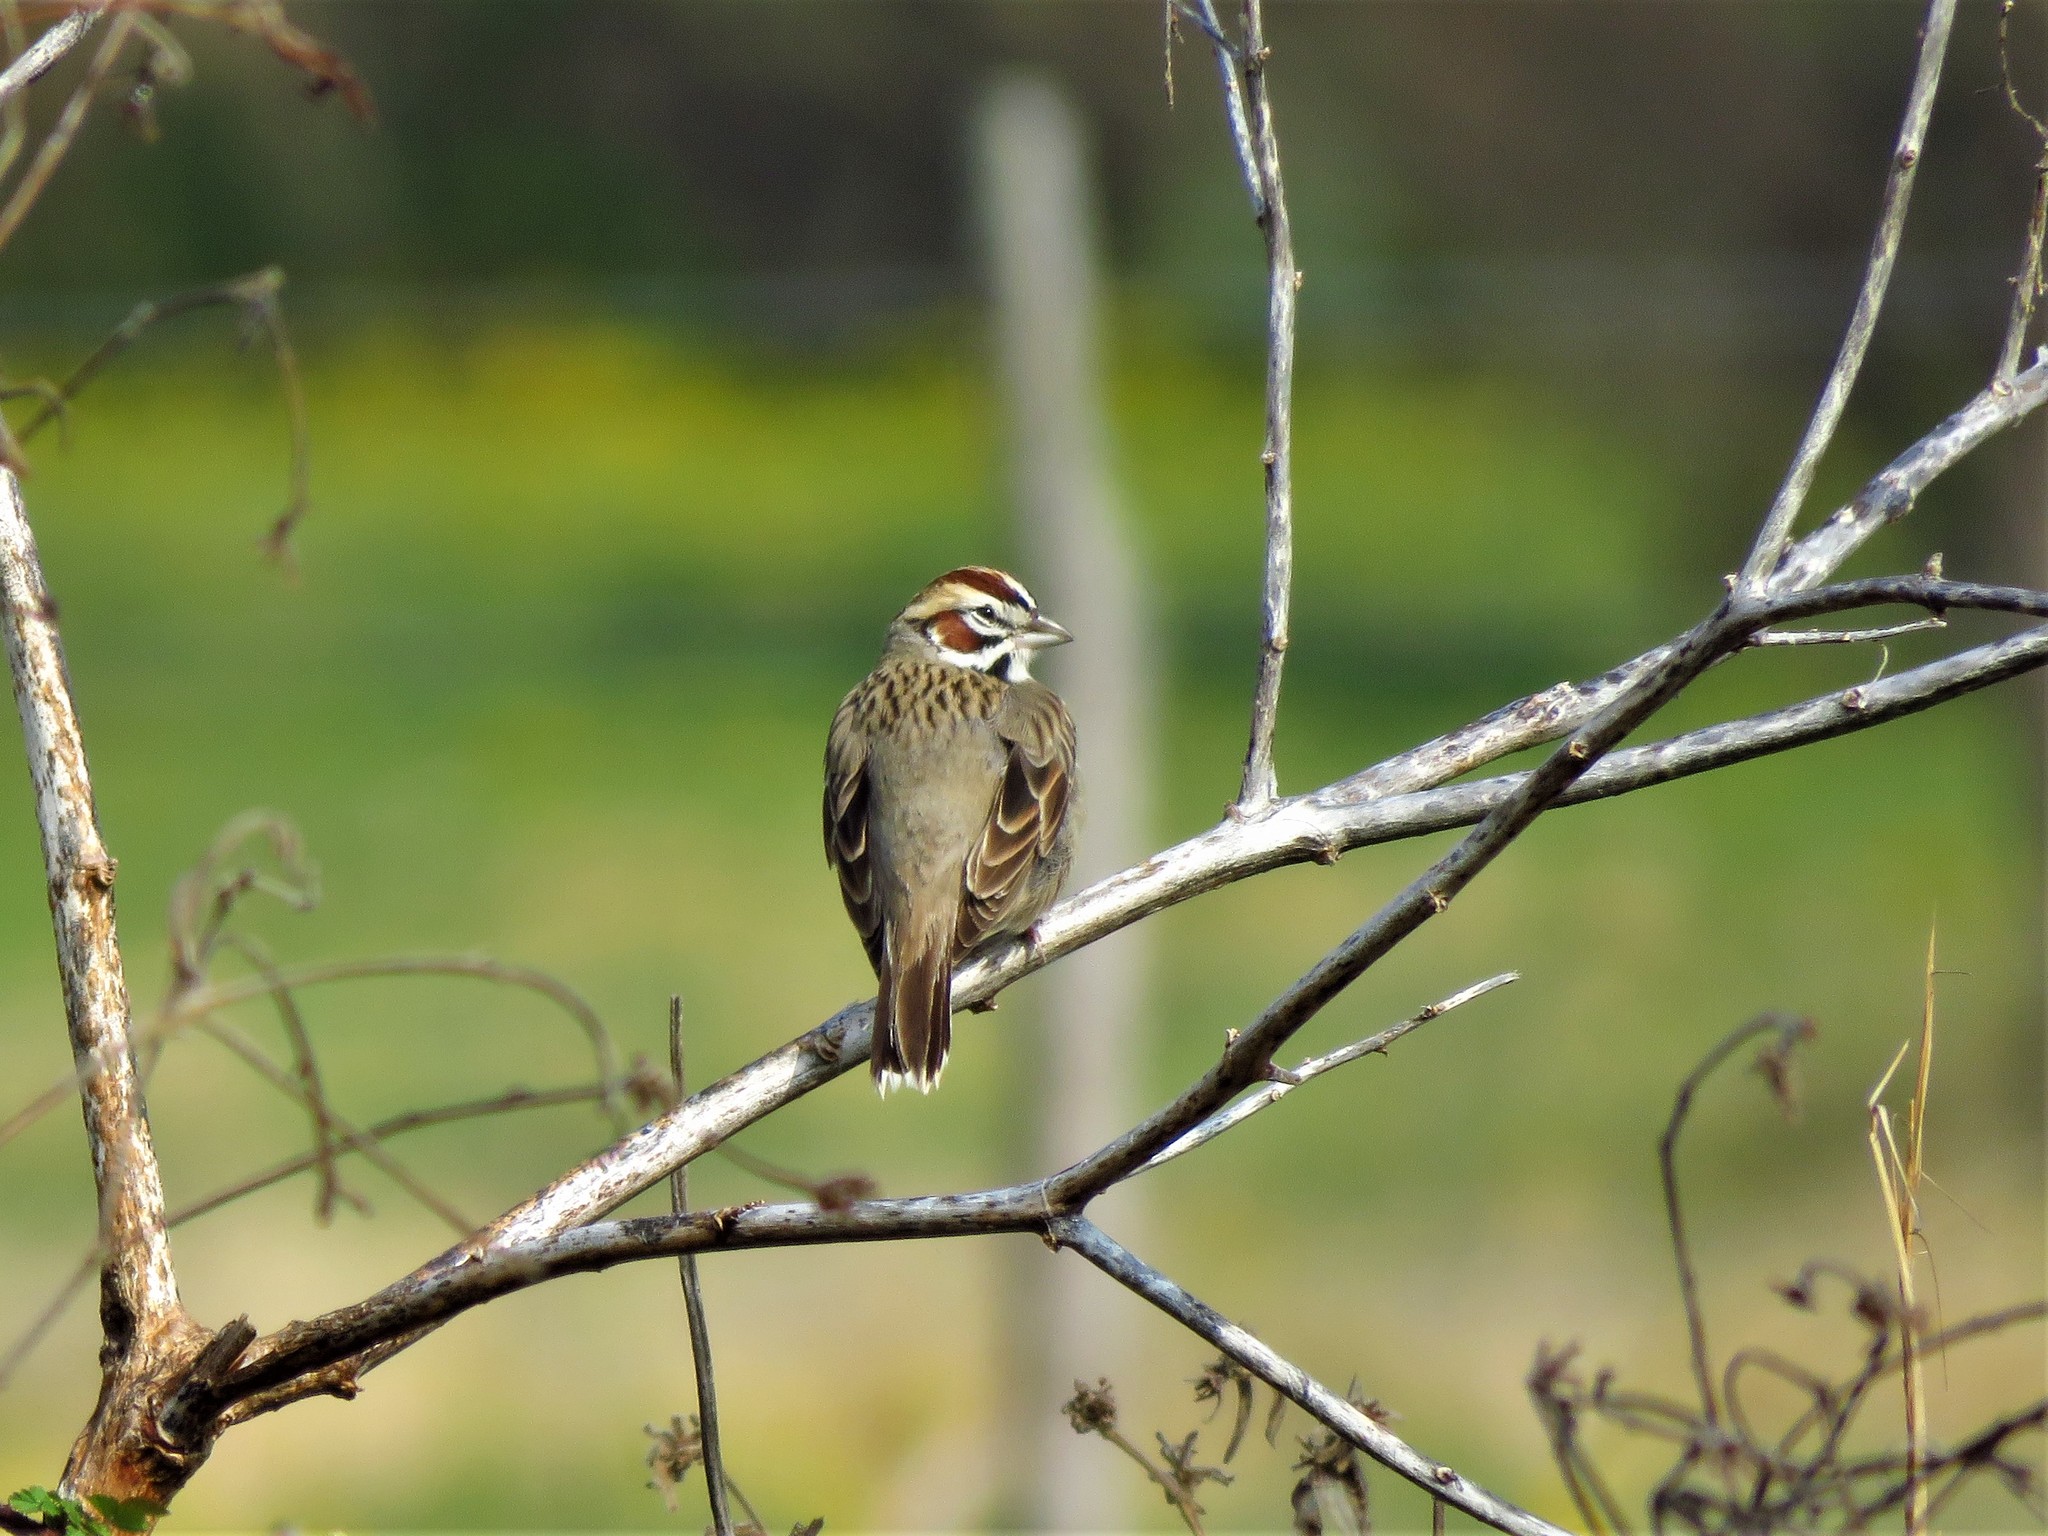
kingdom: Animalia
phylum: Chordata
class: Aves
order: Passeriformes
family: Passerellidae
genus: Chondestes
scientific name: Chondestes grammacus
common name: Lark sparrow
